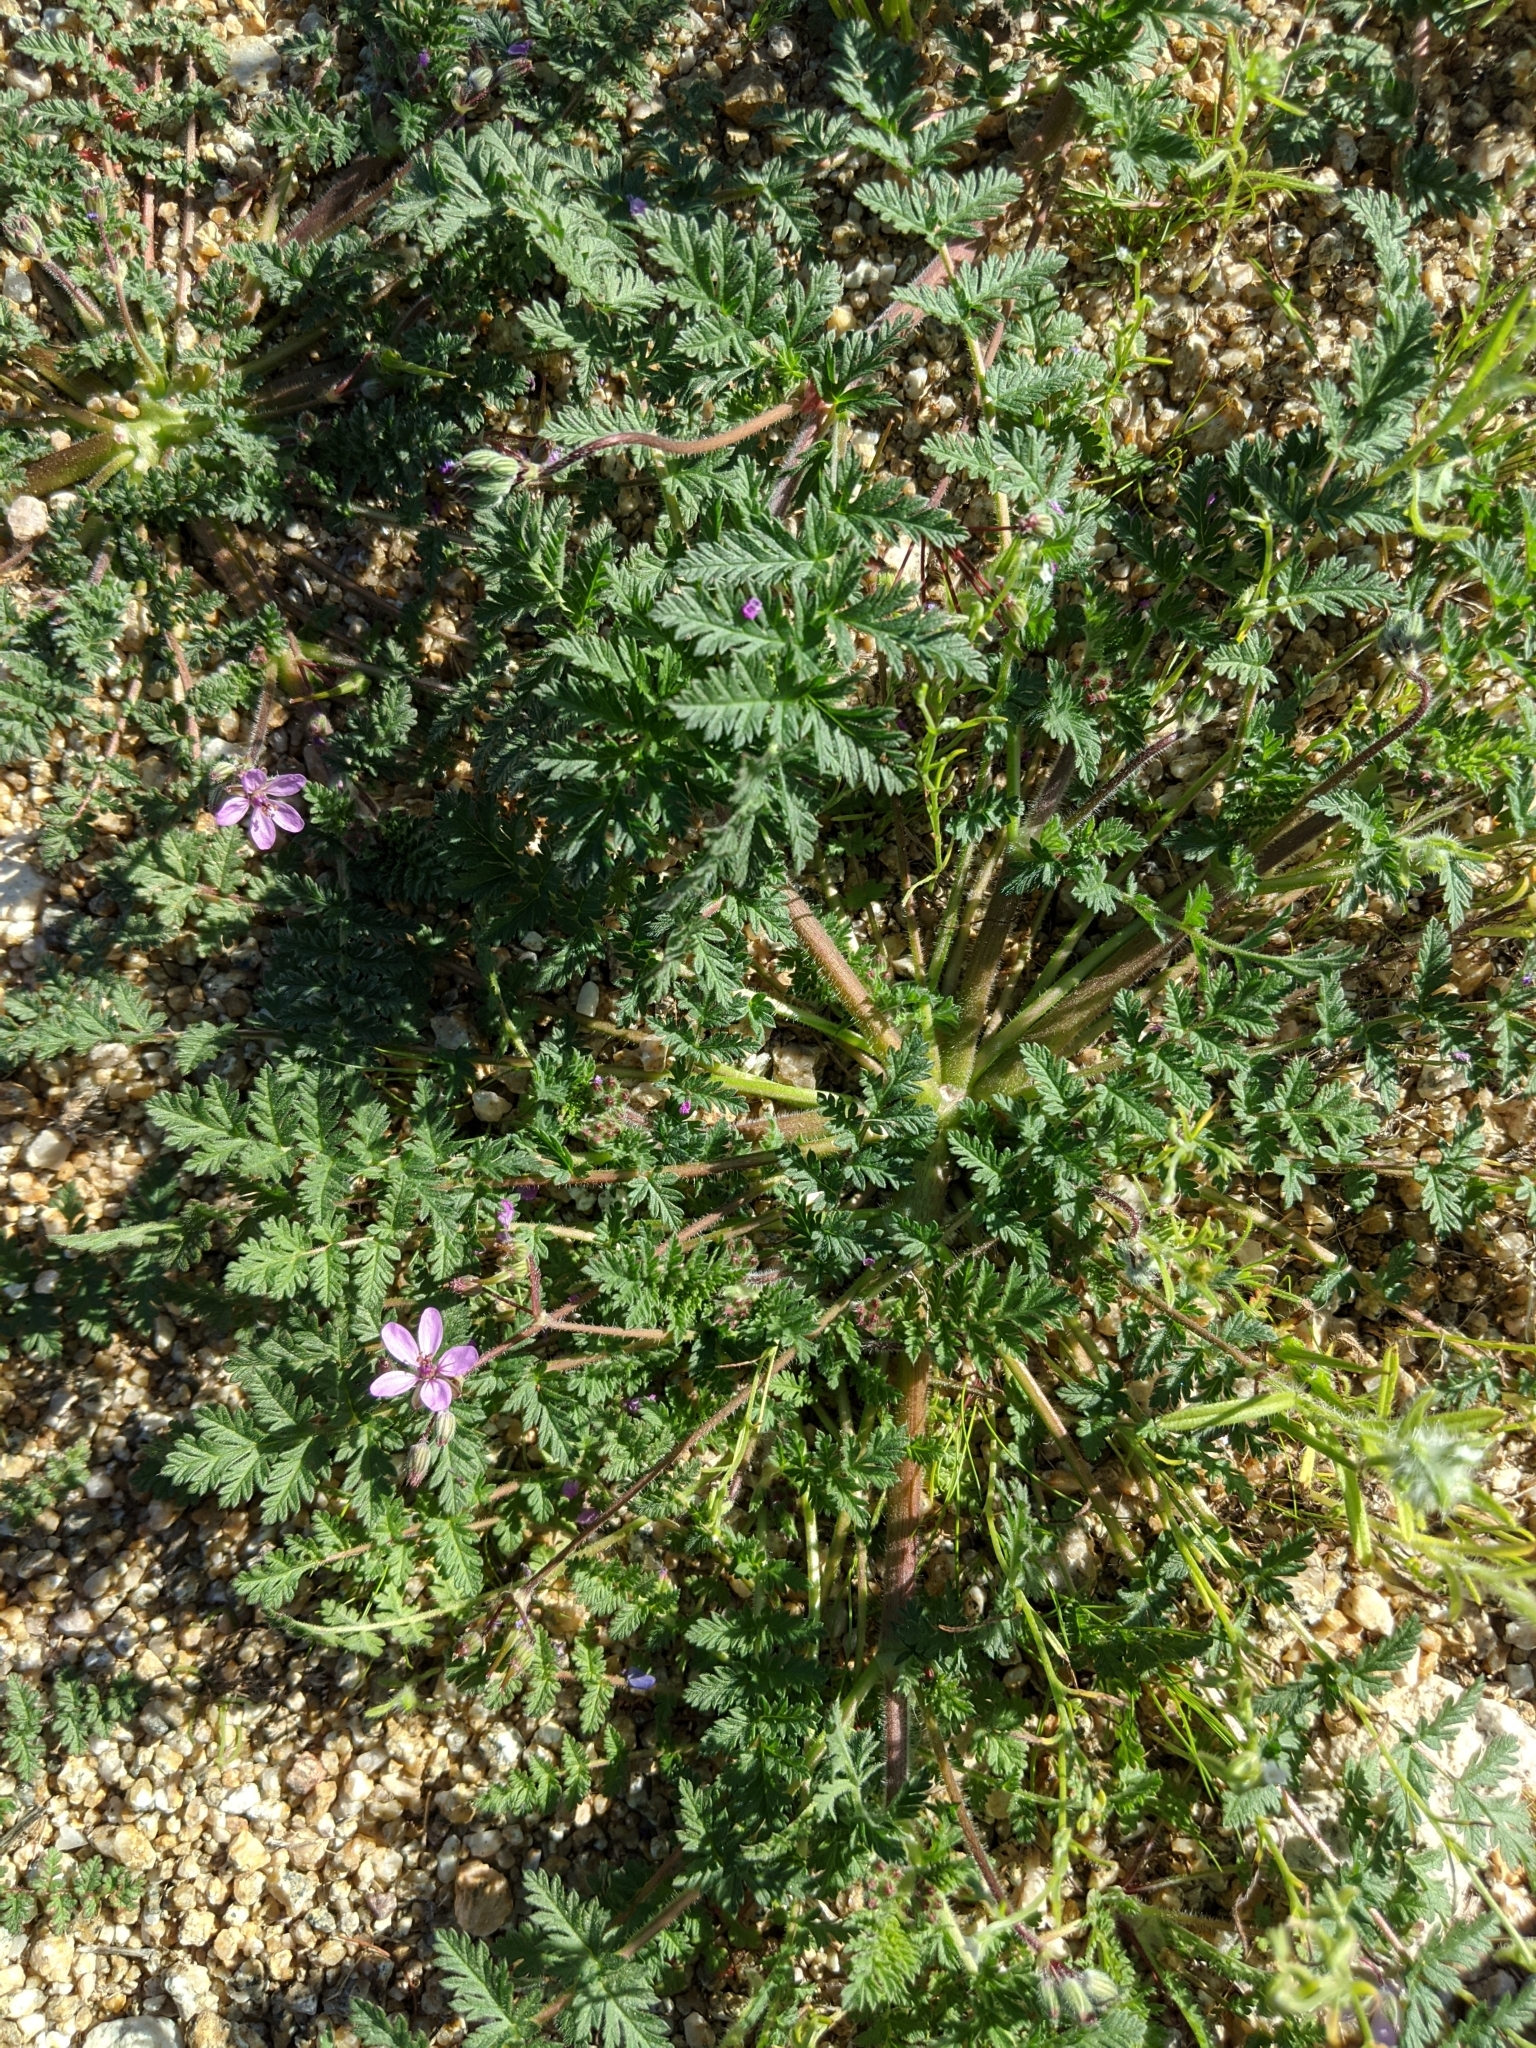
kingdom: Plantae
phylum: Tracheophyta
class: Magnoliopsida
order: Geraniales
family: Geraniaceae
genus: Erodium
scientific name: Erodium cicutarium
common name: Common stork's-bill
